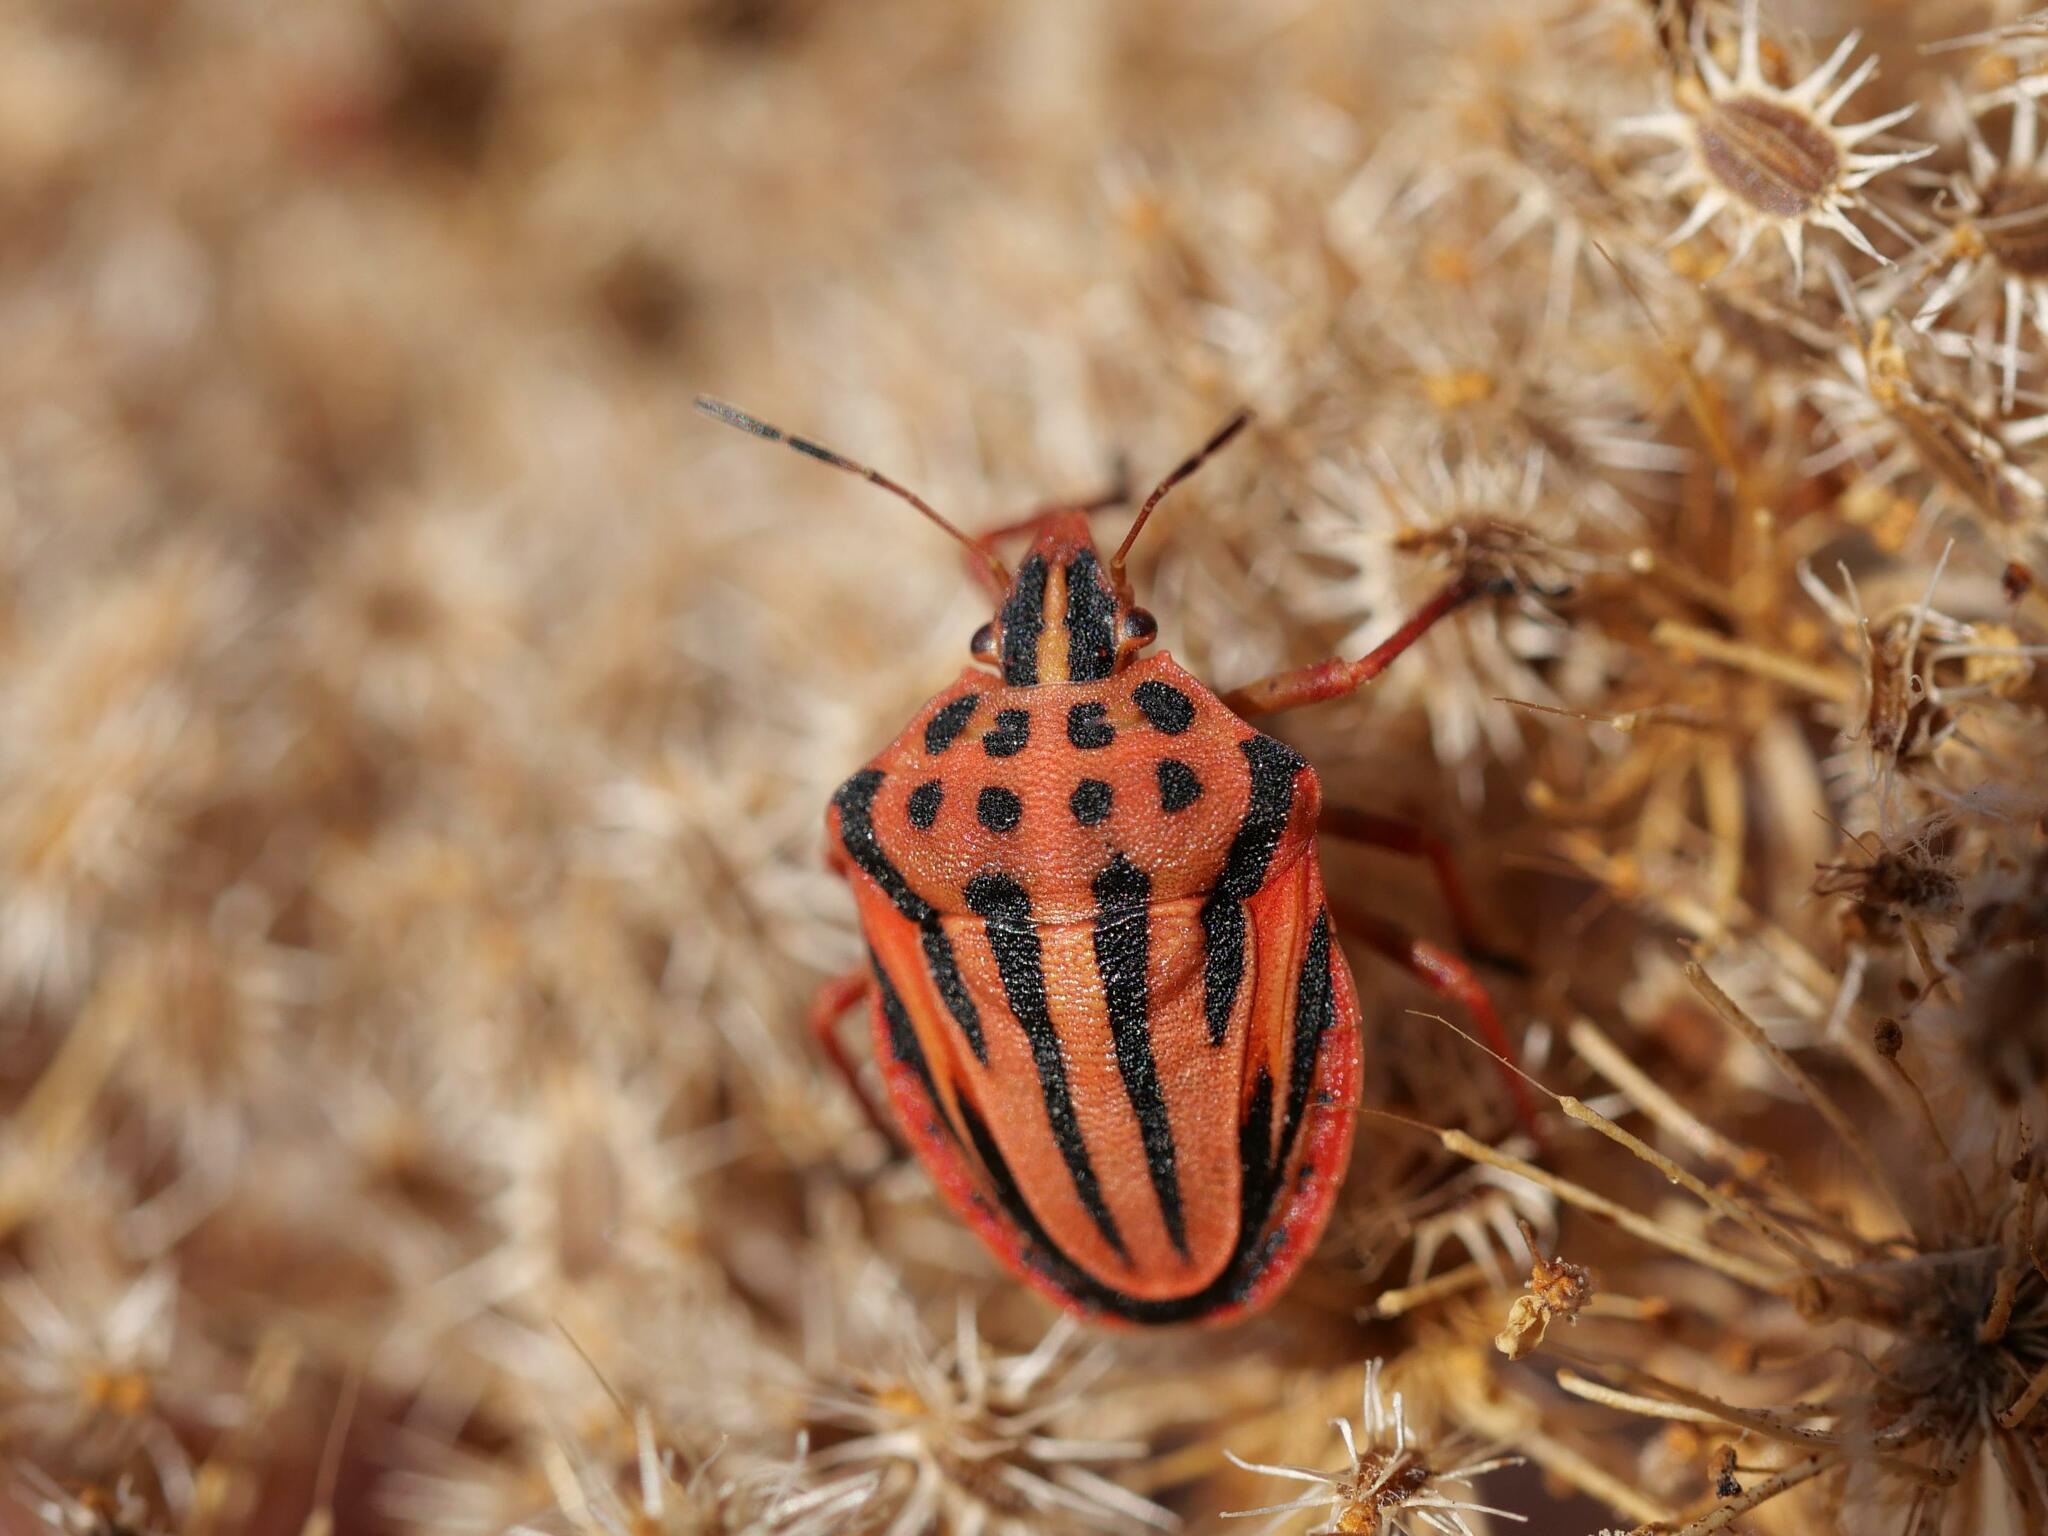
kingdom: Animalia
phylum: Arthropoda
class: Insecta
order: Hemiptera
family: Pentatomidae
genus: Graphosoma
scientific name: Graphosoma semipunctatum
